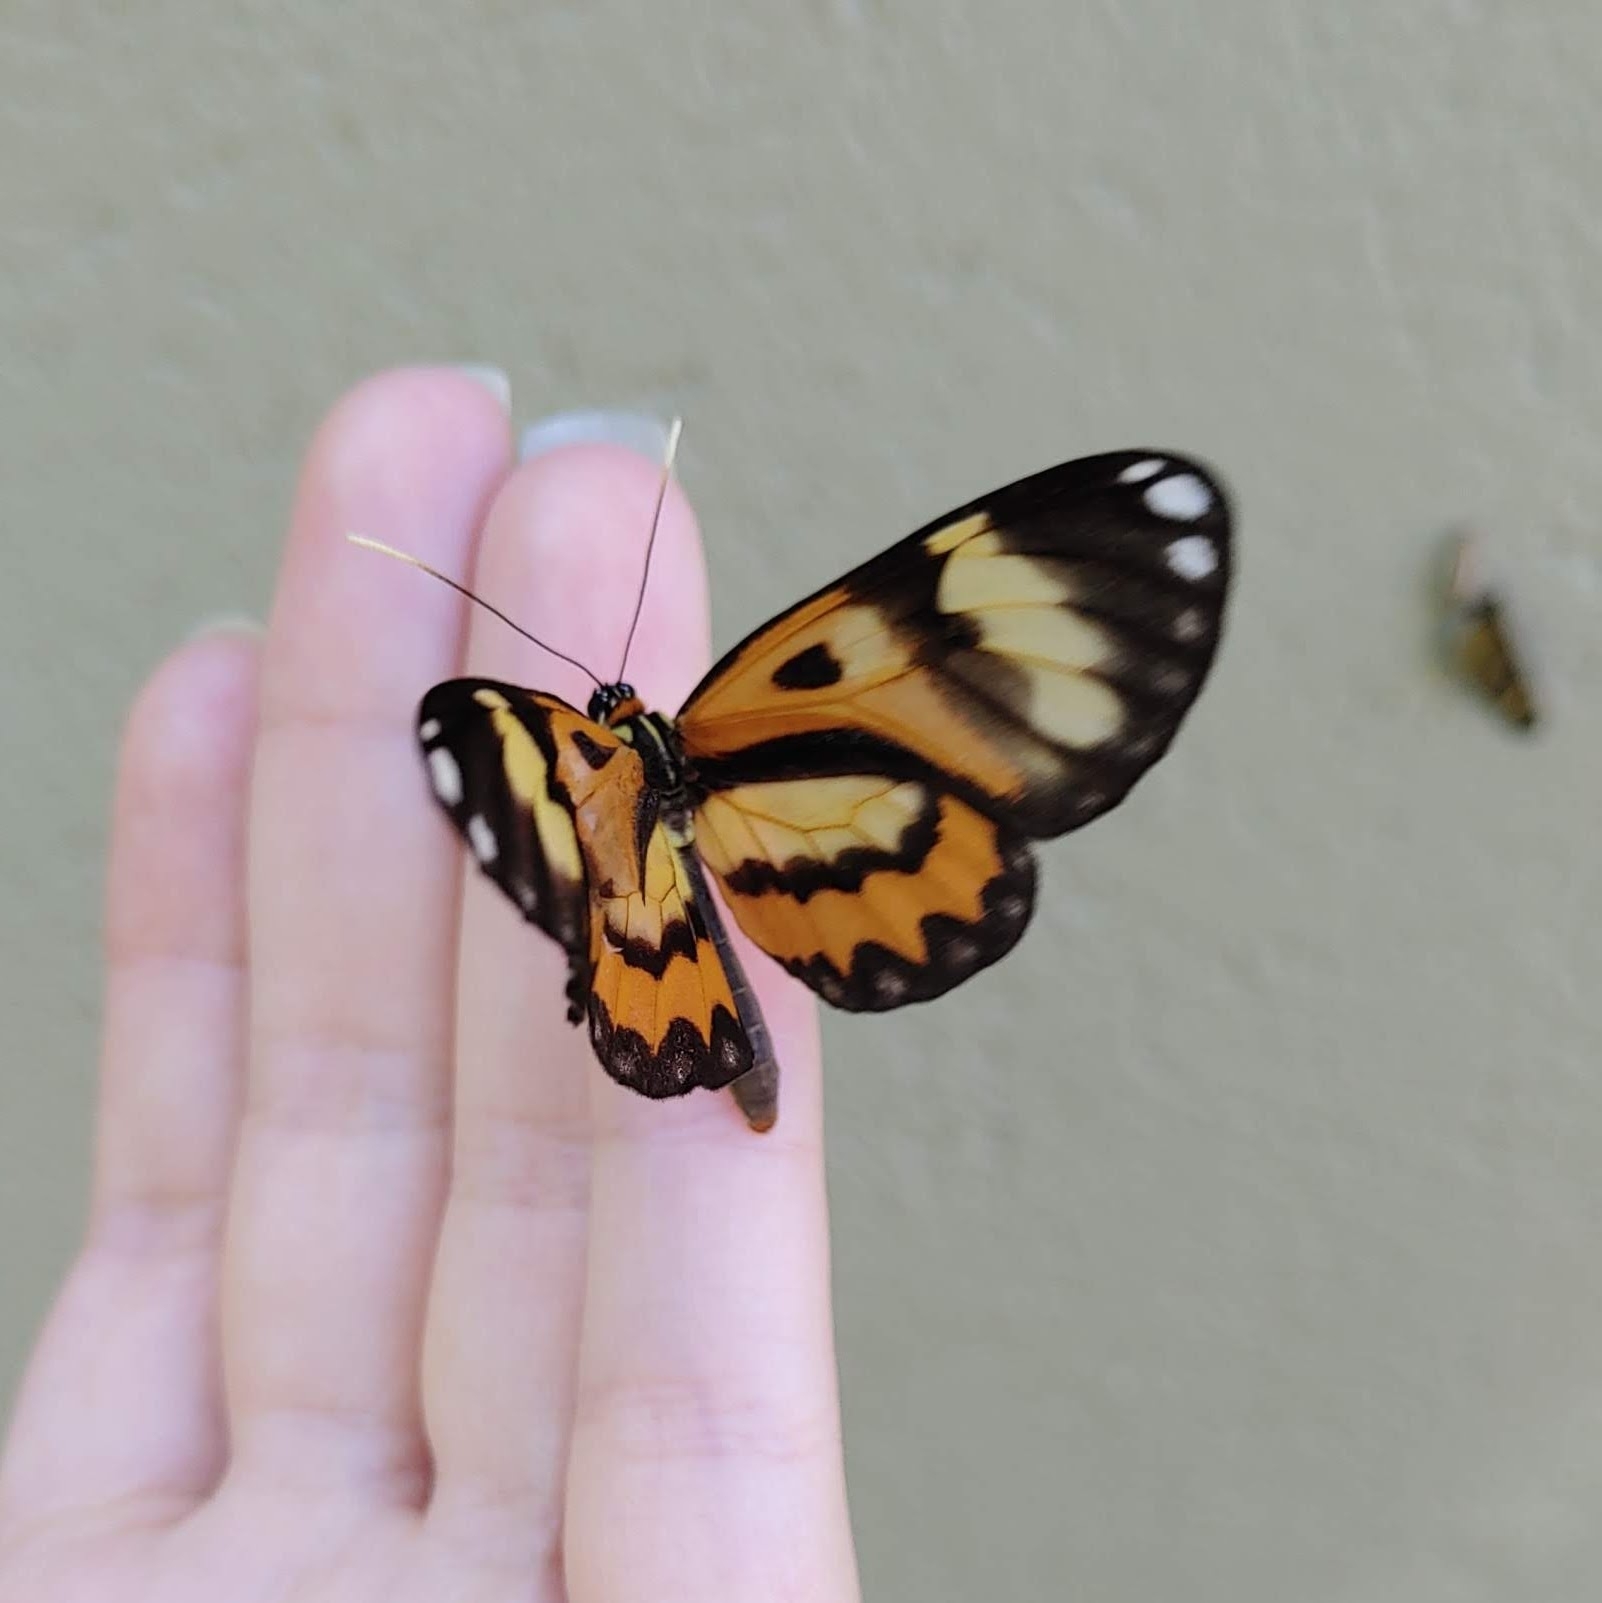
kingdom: Animalia
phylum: Arthropoda
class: Insecta
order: Lepidoptera
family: Nymphalidae
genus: Placidina
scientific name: Placidina euryanassa
